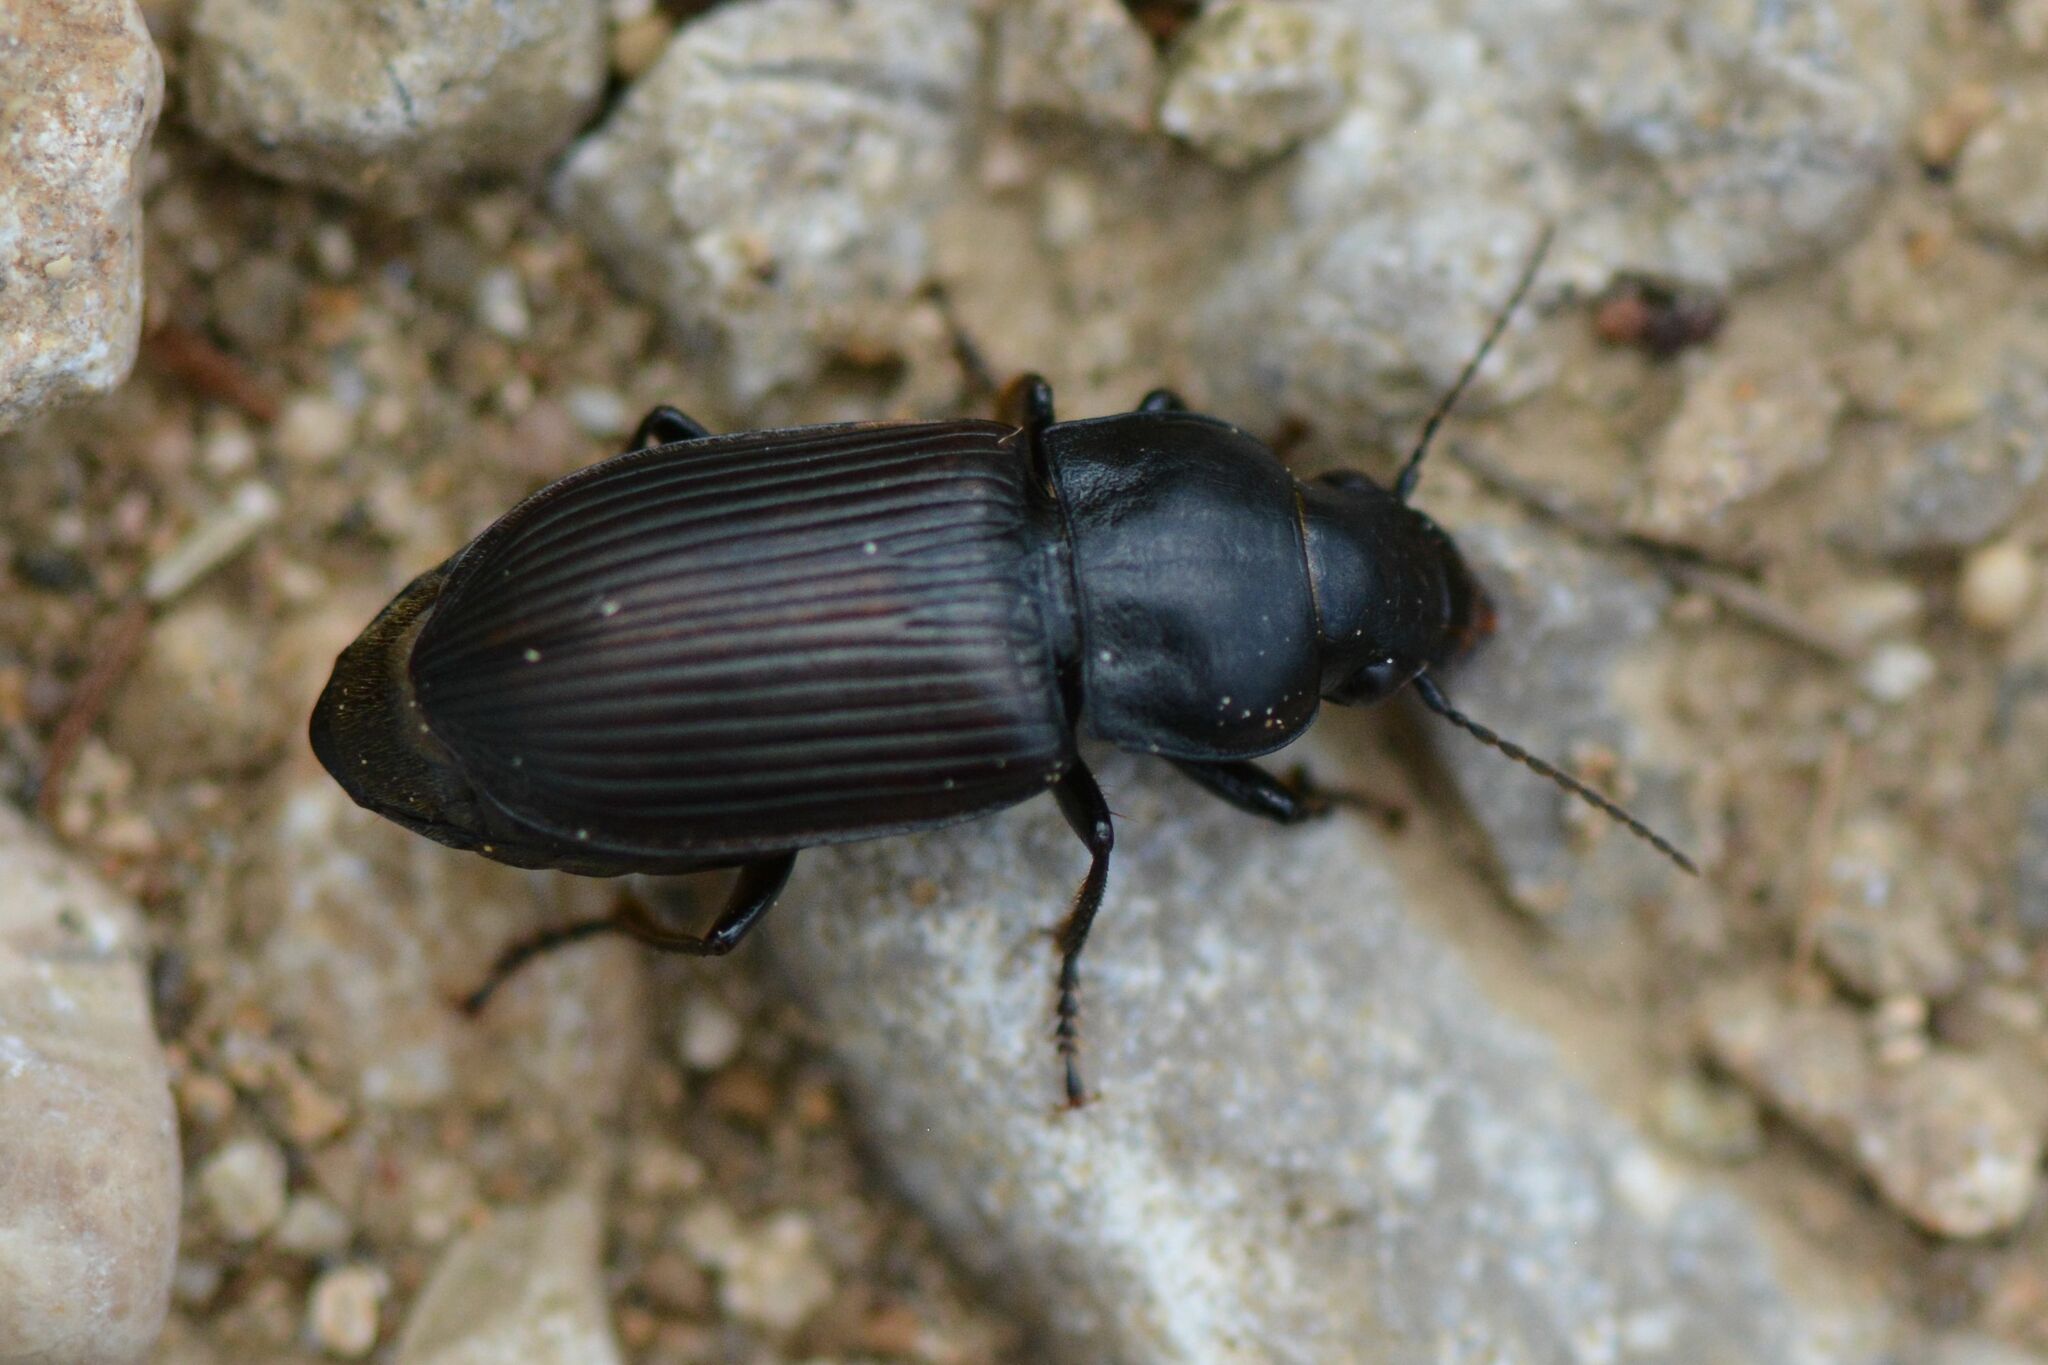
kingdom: Animalia
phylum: Arthropoda
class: Insecta
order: Coleoptera
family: Carabidae
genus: Anisodactylus
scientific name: Anisodactylus signatus
